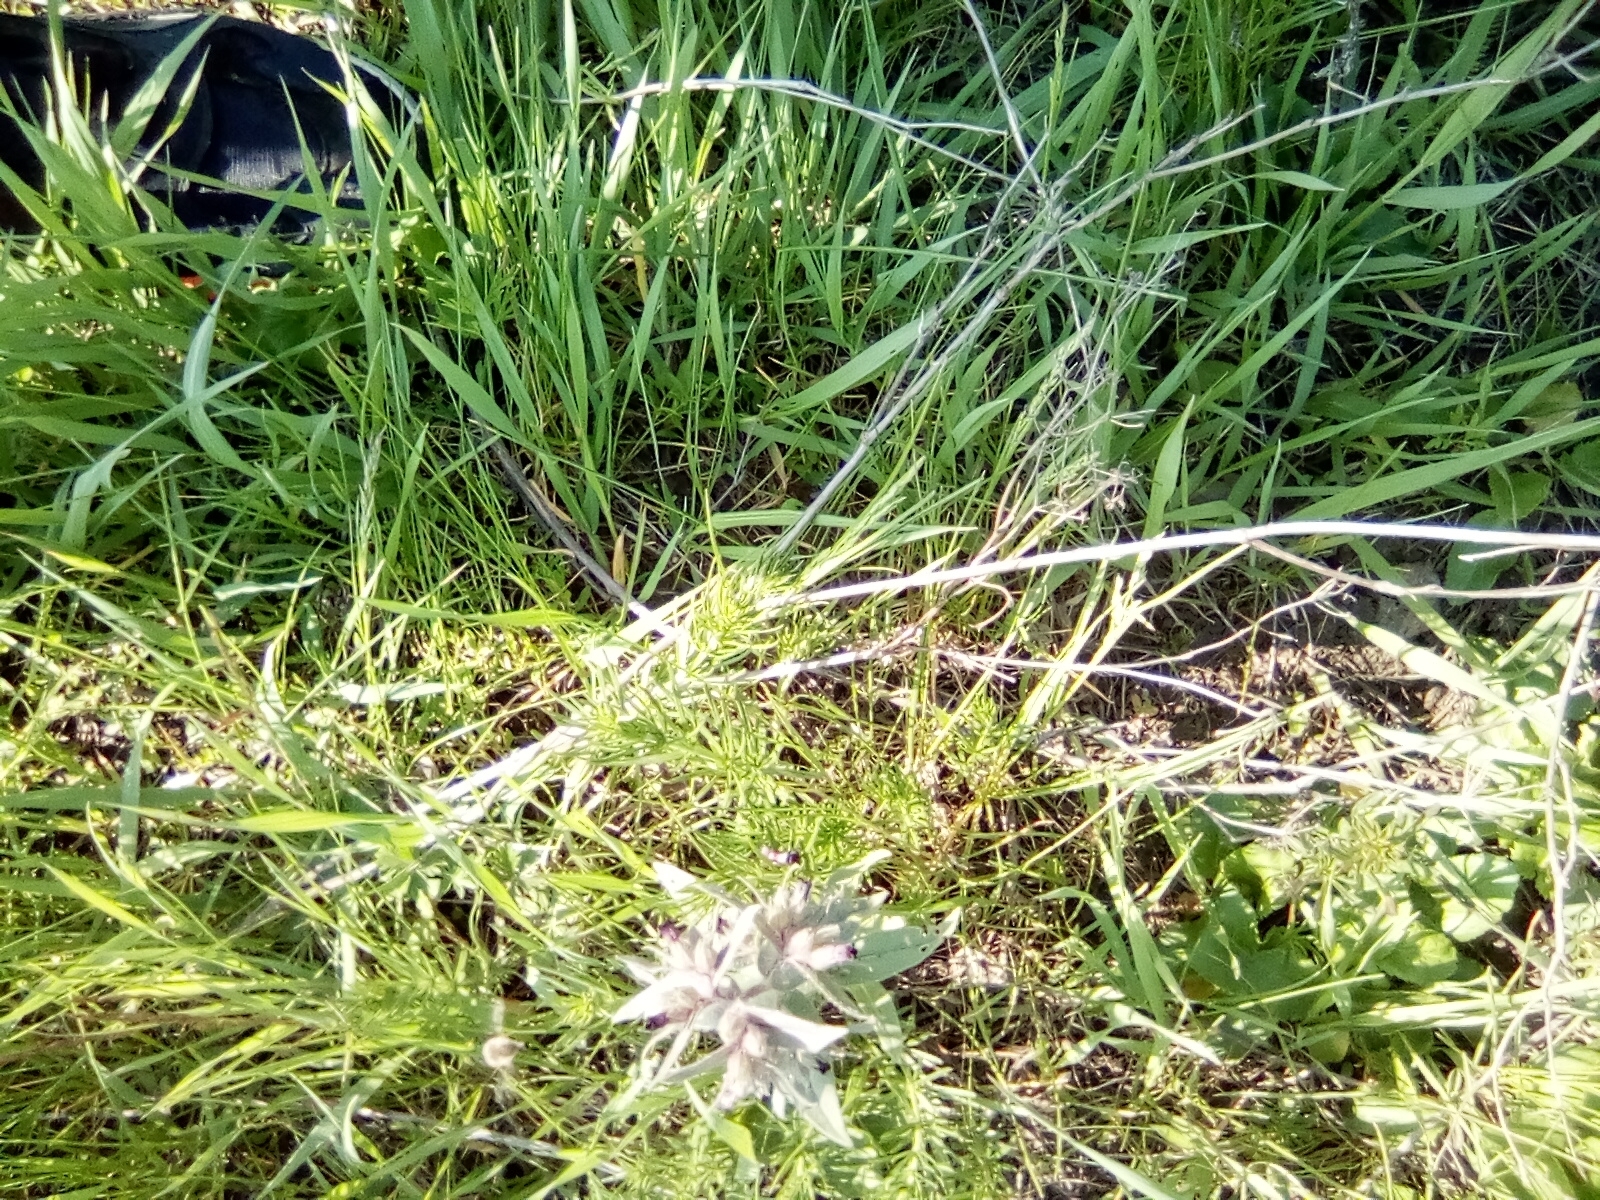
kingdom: Plantae
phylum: Tracheophyta
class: Magnoliopsida
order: Boraginales
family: Boraginaceae
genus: Nonea
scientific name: Nonea pulla
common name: Brown nonea
